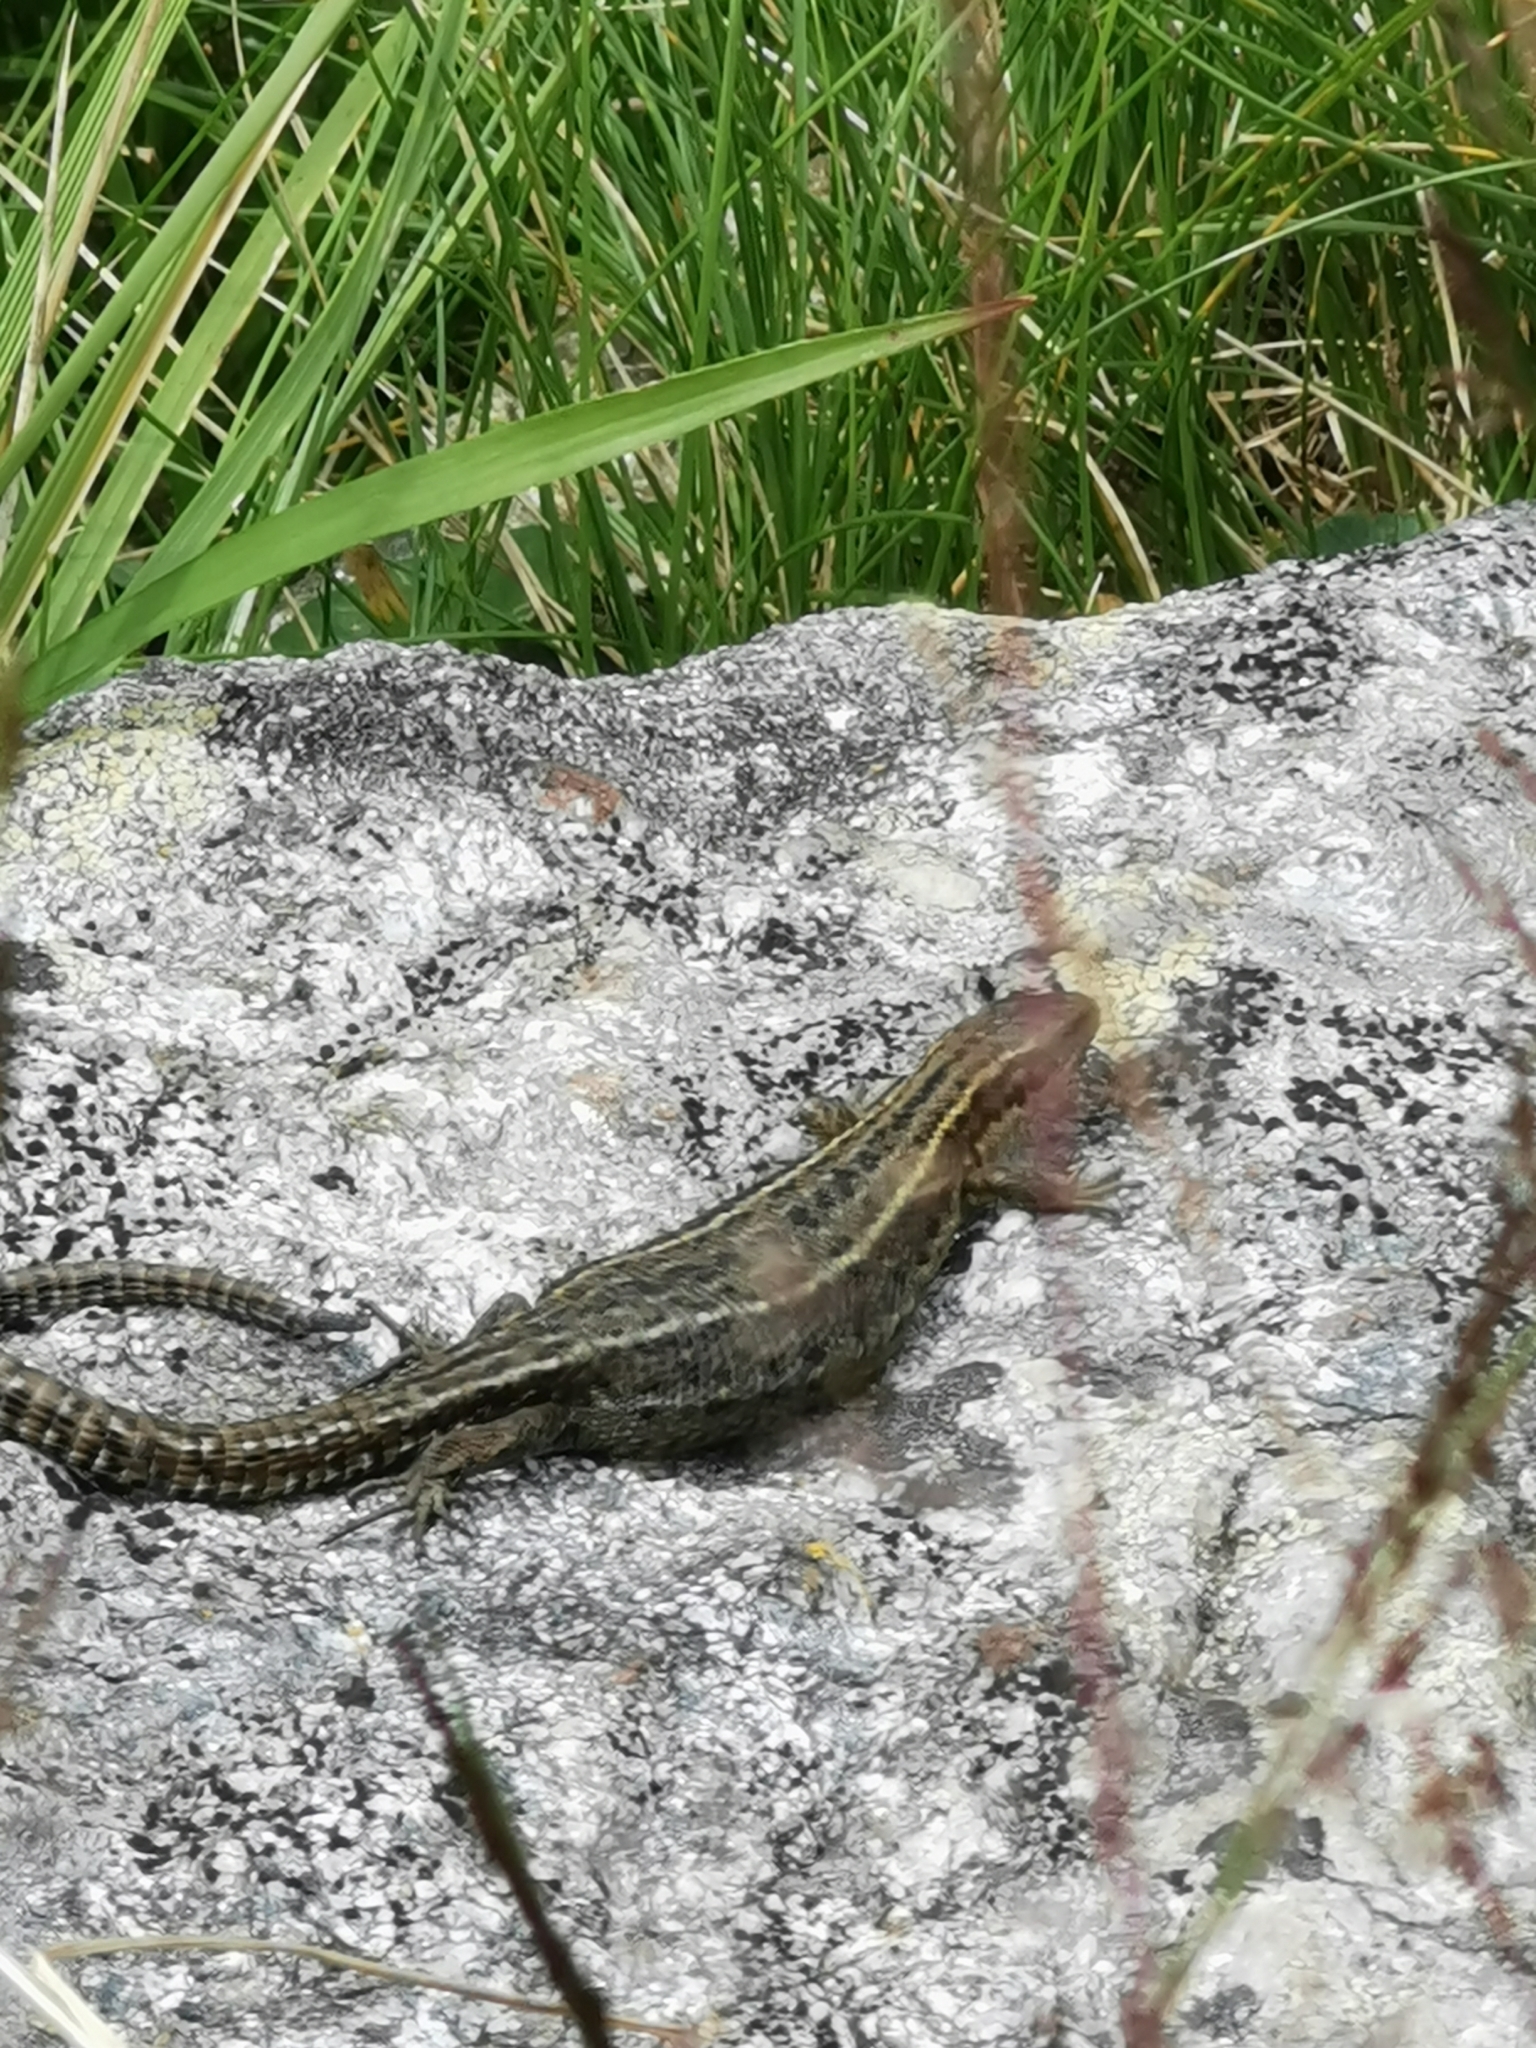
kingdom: Animalia
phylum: Chordata
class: Squamata
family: Lacertidae
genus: Zootoca
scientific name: Zootoca vivipara
